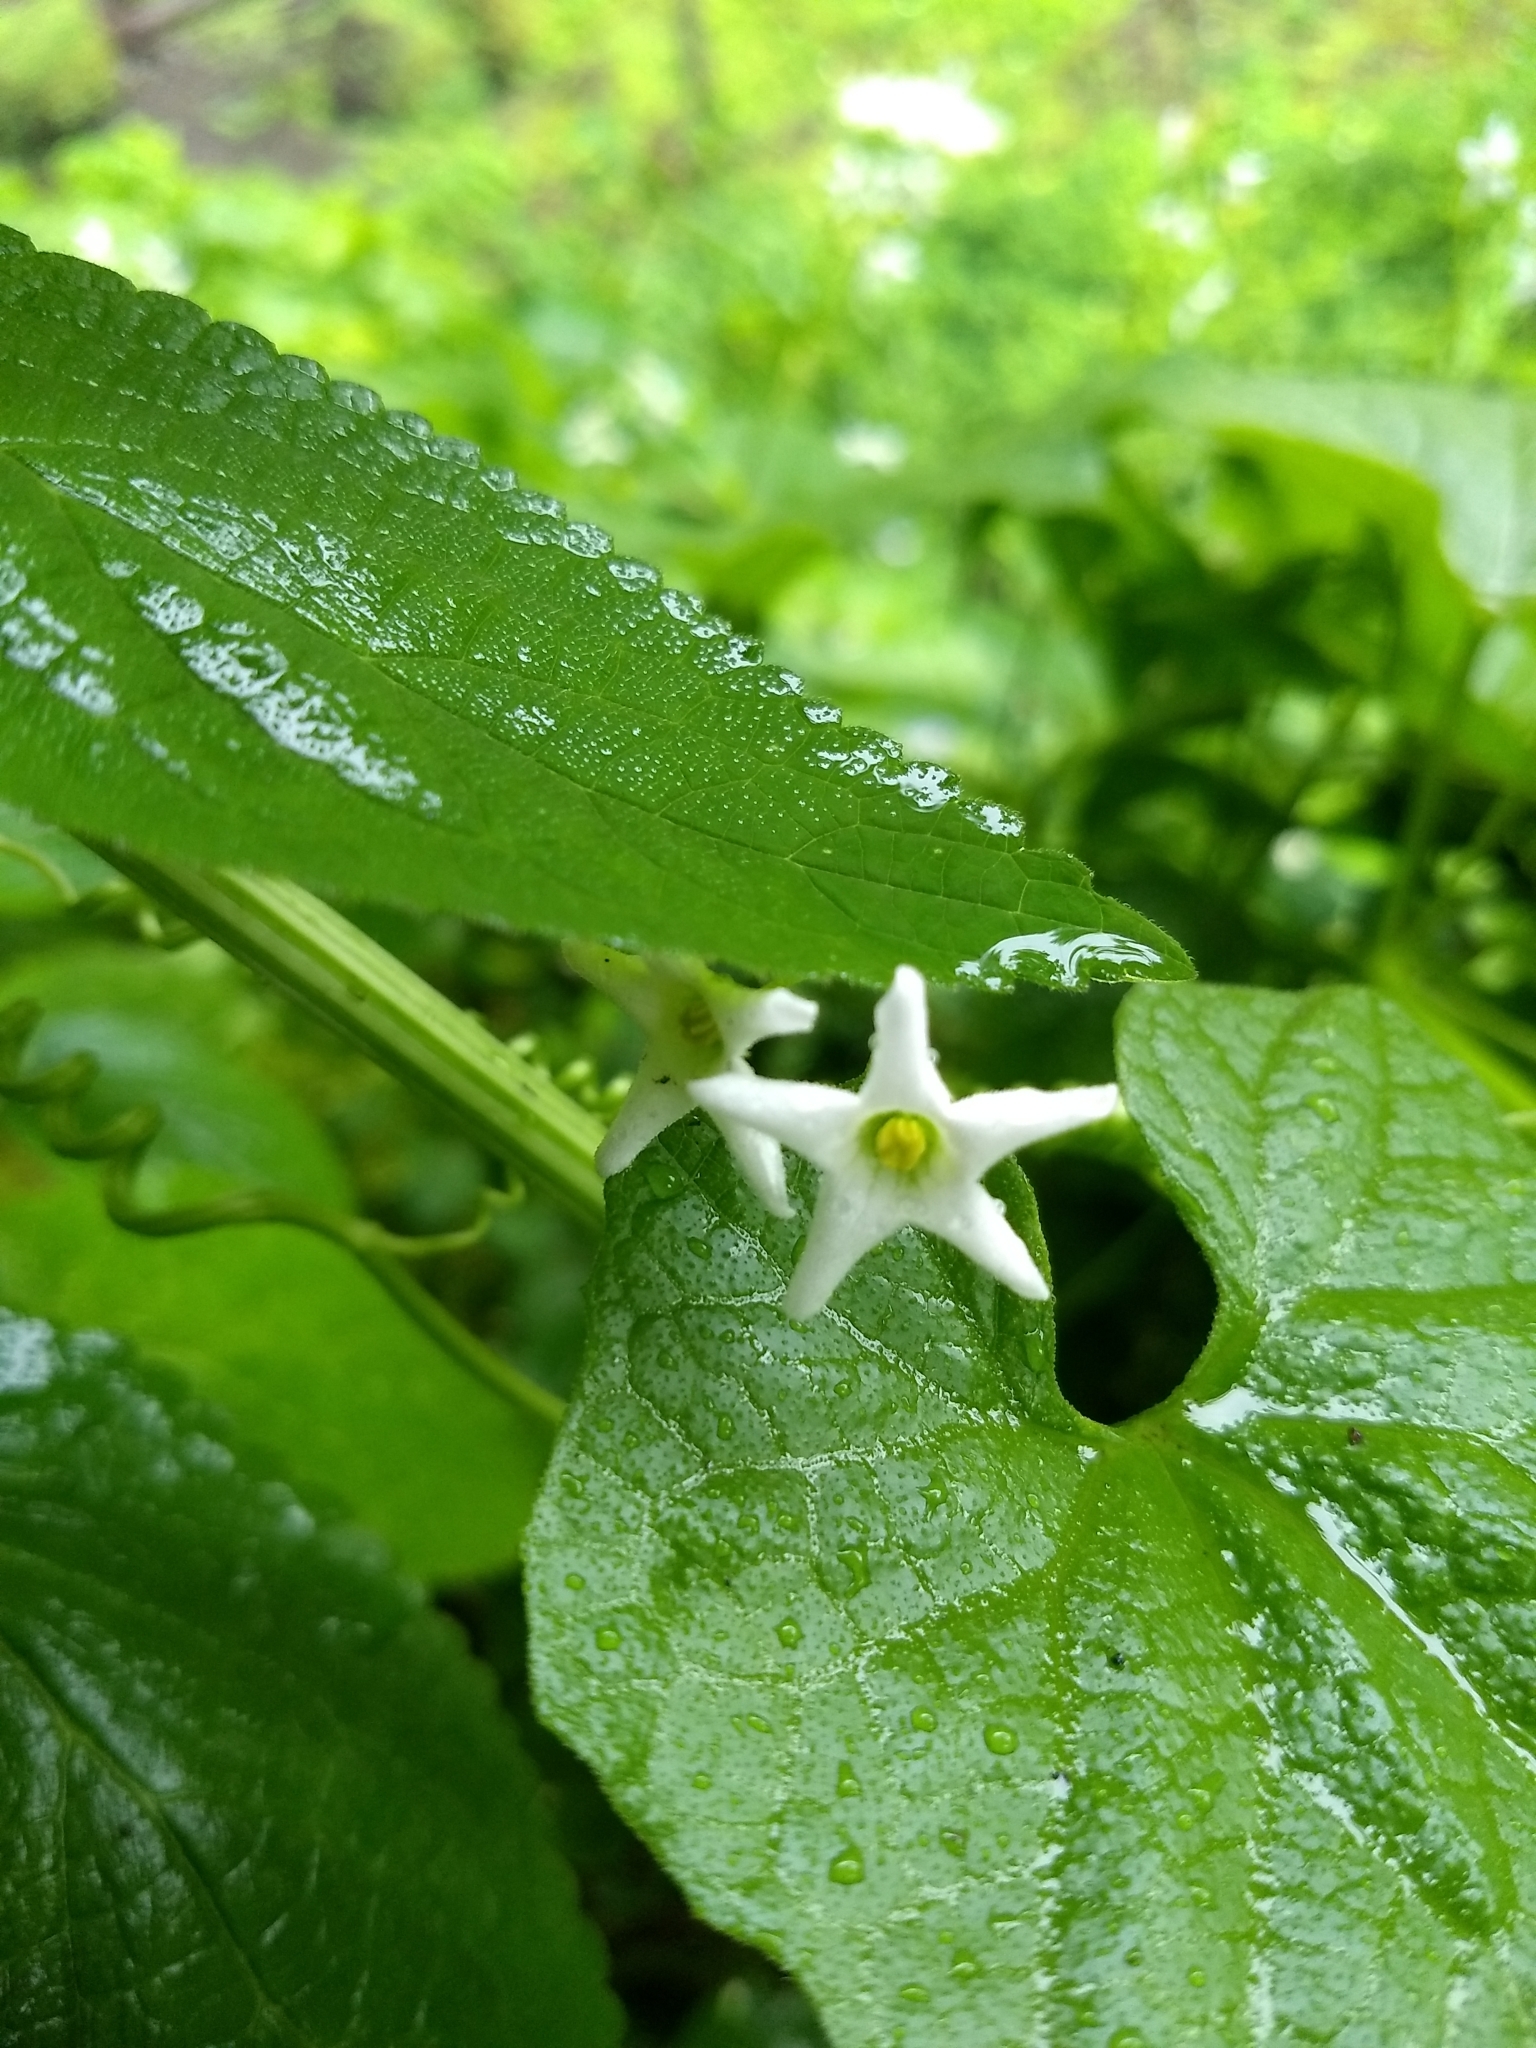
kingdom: Plantae
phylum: Tracheophyta
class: Magnoliopsida
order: Cucurbitales
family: Cucurbitaceae
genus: Marah
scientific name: Marah oregana
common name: Coastal manroot
